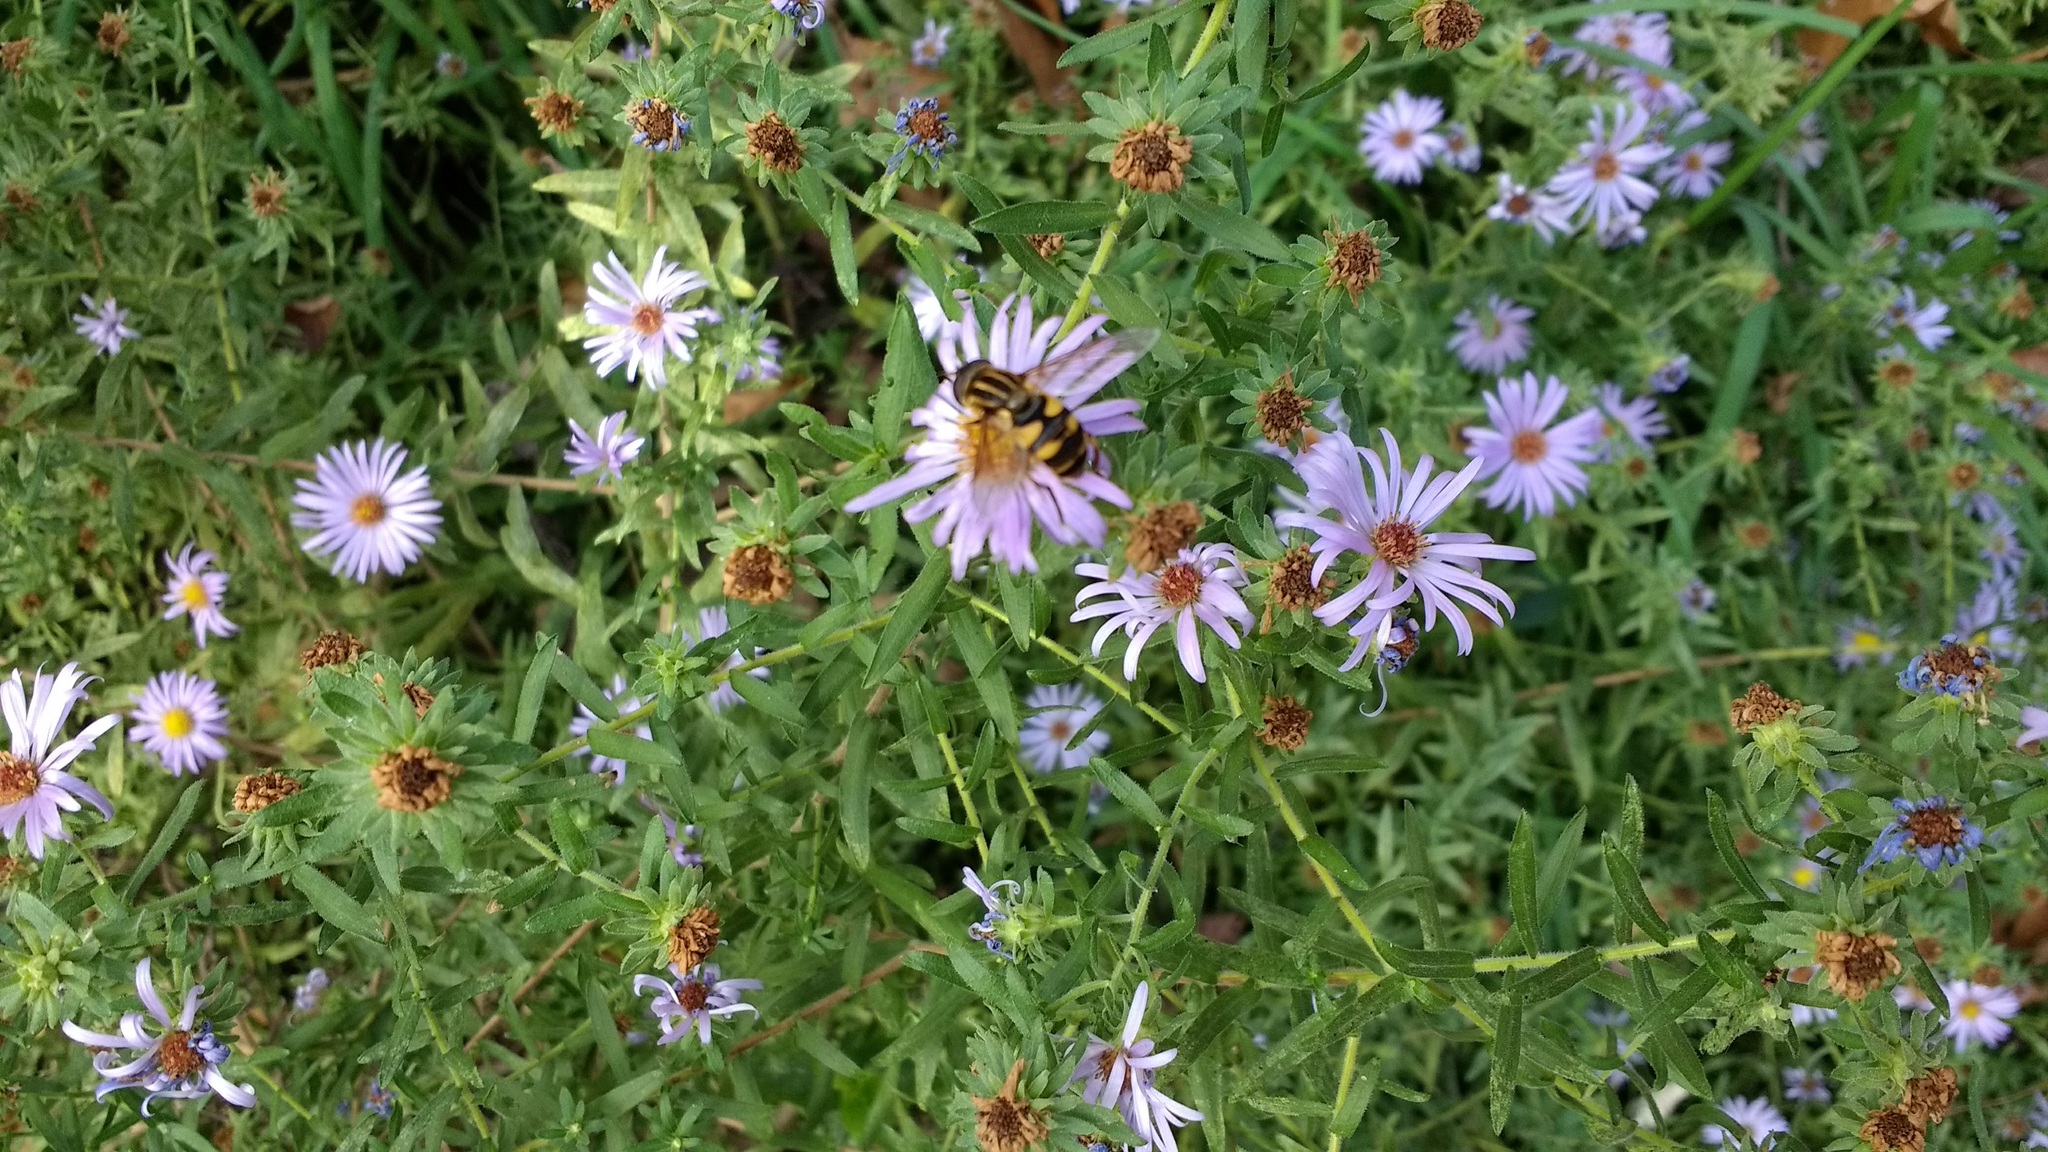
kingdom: Animalia
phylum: Arthropoda
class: Insecta
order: Diptera
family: Syrphidae
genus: Helophilus
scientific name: Helophilus fasciatus
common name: Narrow-headed marsh fly
